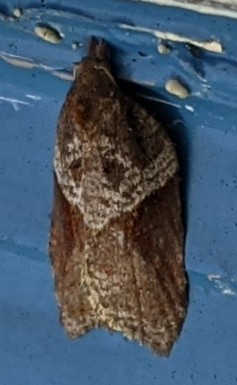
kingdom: Animalia
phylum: Arthropoda
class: Insecta
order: Lepidoptera
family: Tortricidae
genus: Acleris
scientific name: Acleris macdunnoughi
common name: Macdunnough's acleris
